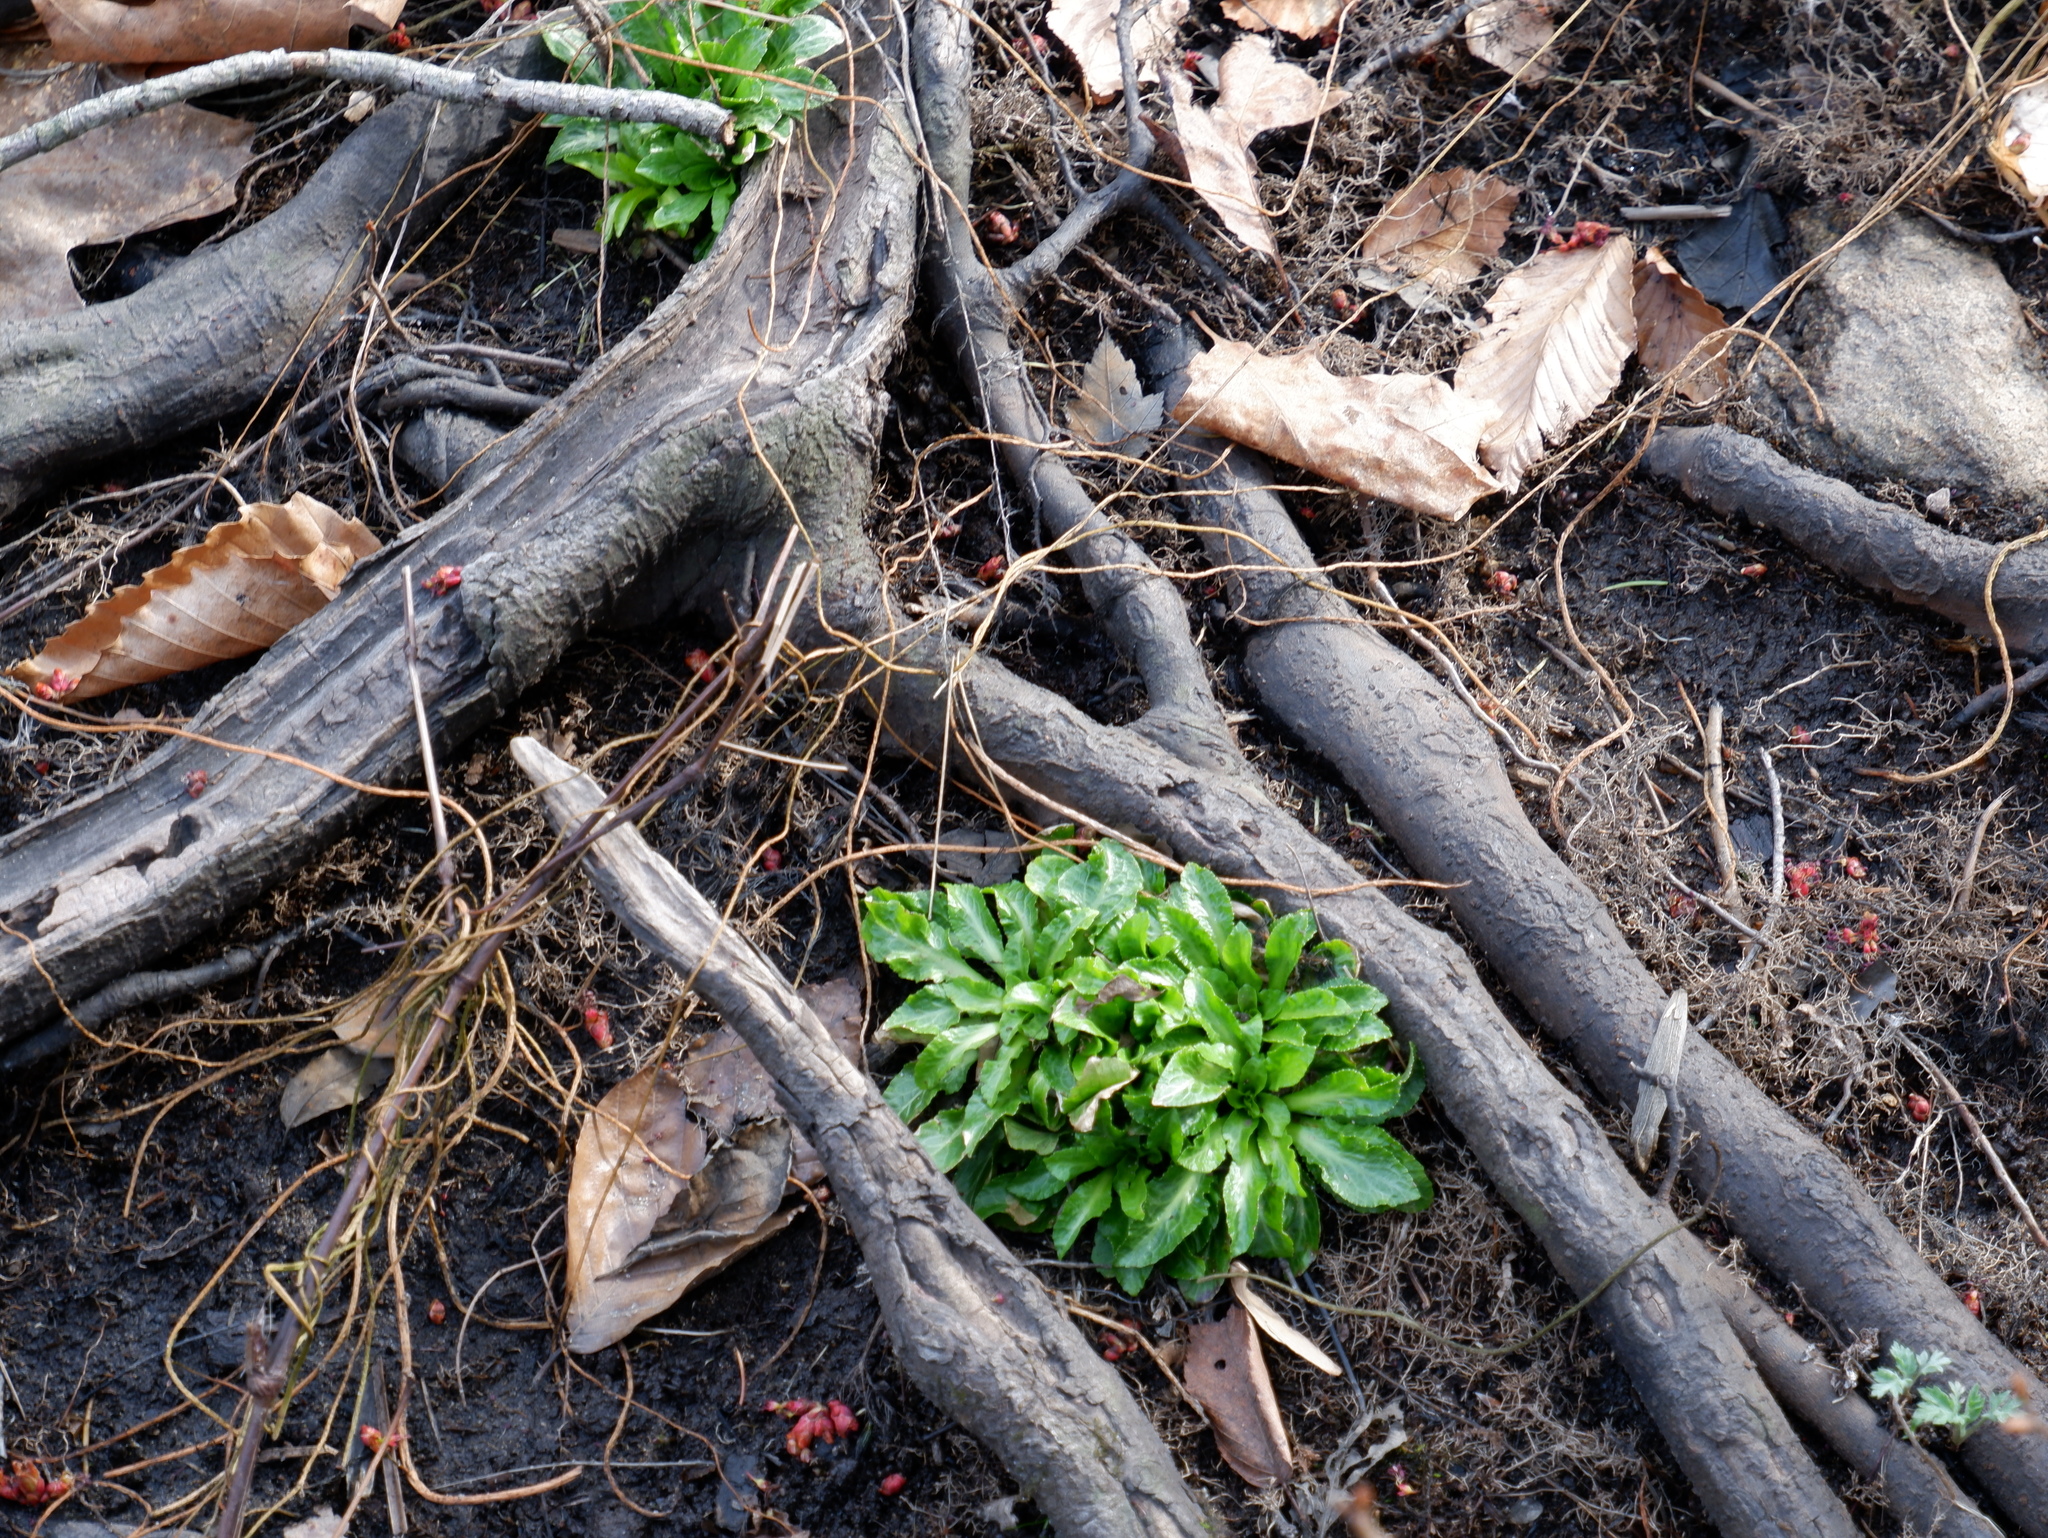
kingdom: Plantae
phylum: Tracheophyta
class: Magnoliopsida
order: Asterales
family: Campanulaceae
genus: Lobelia
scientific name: Lobelia cardinalis
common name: Cardinal flower
